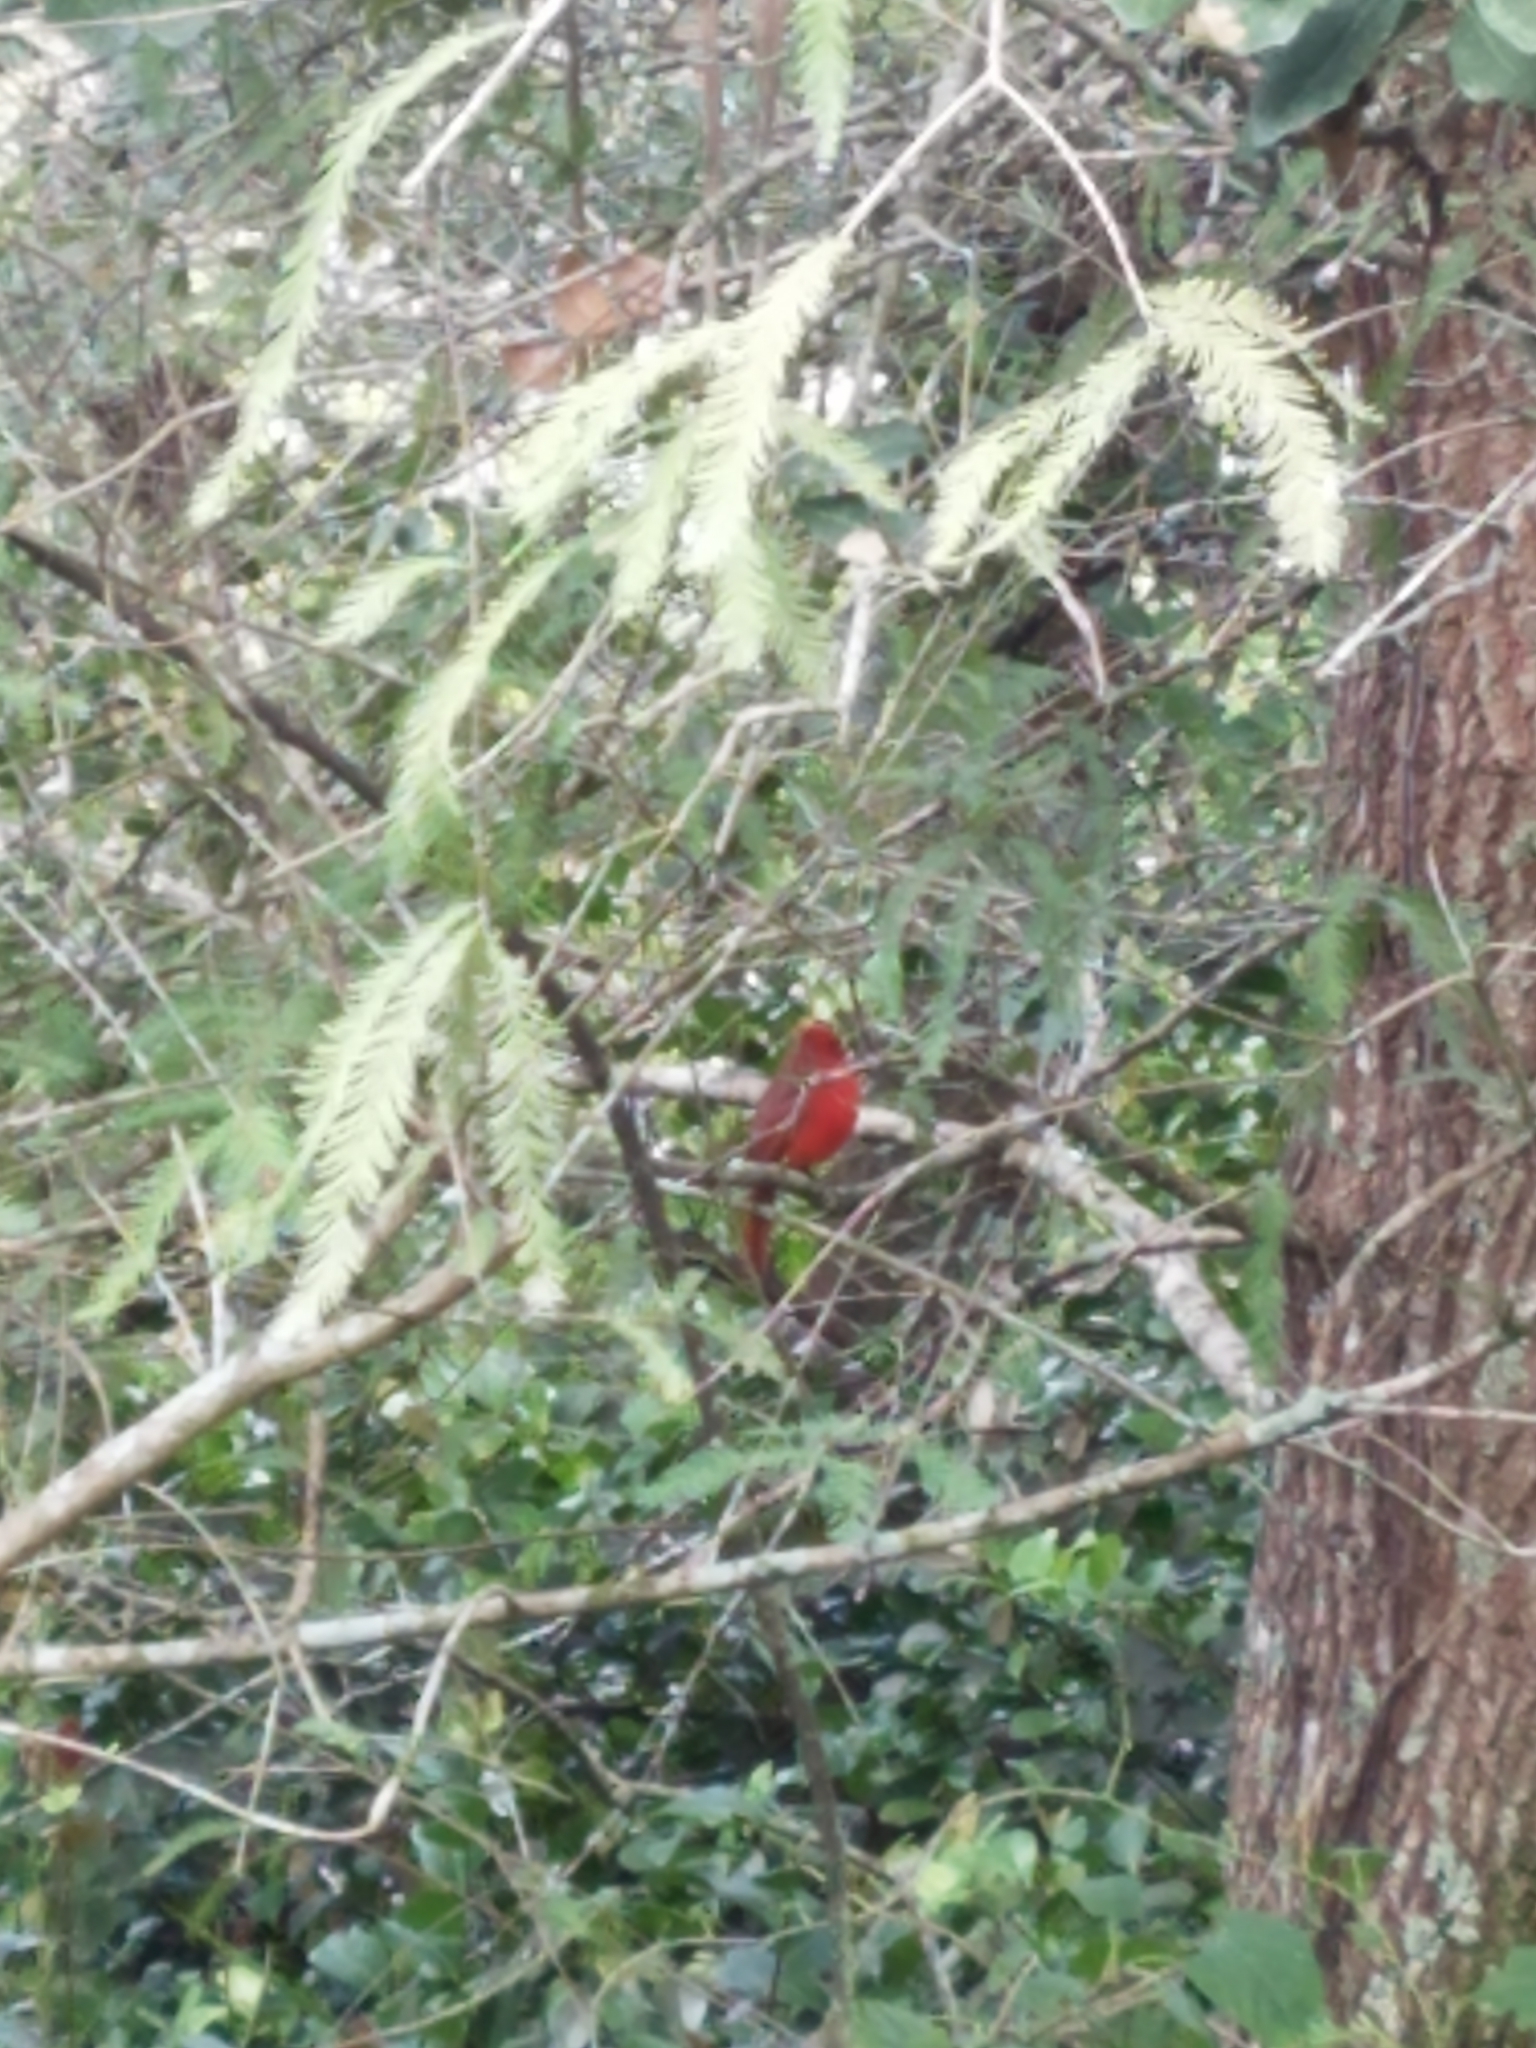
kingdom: Animalia
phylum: Chordata
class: Aves
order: Passeriformes
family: Cardinalidae
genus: Cardinalis
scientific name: Cardinalis cardinalis
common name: Northern cardinal
